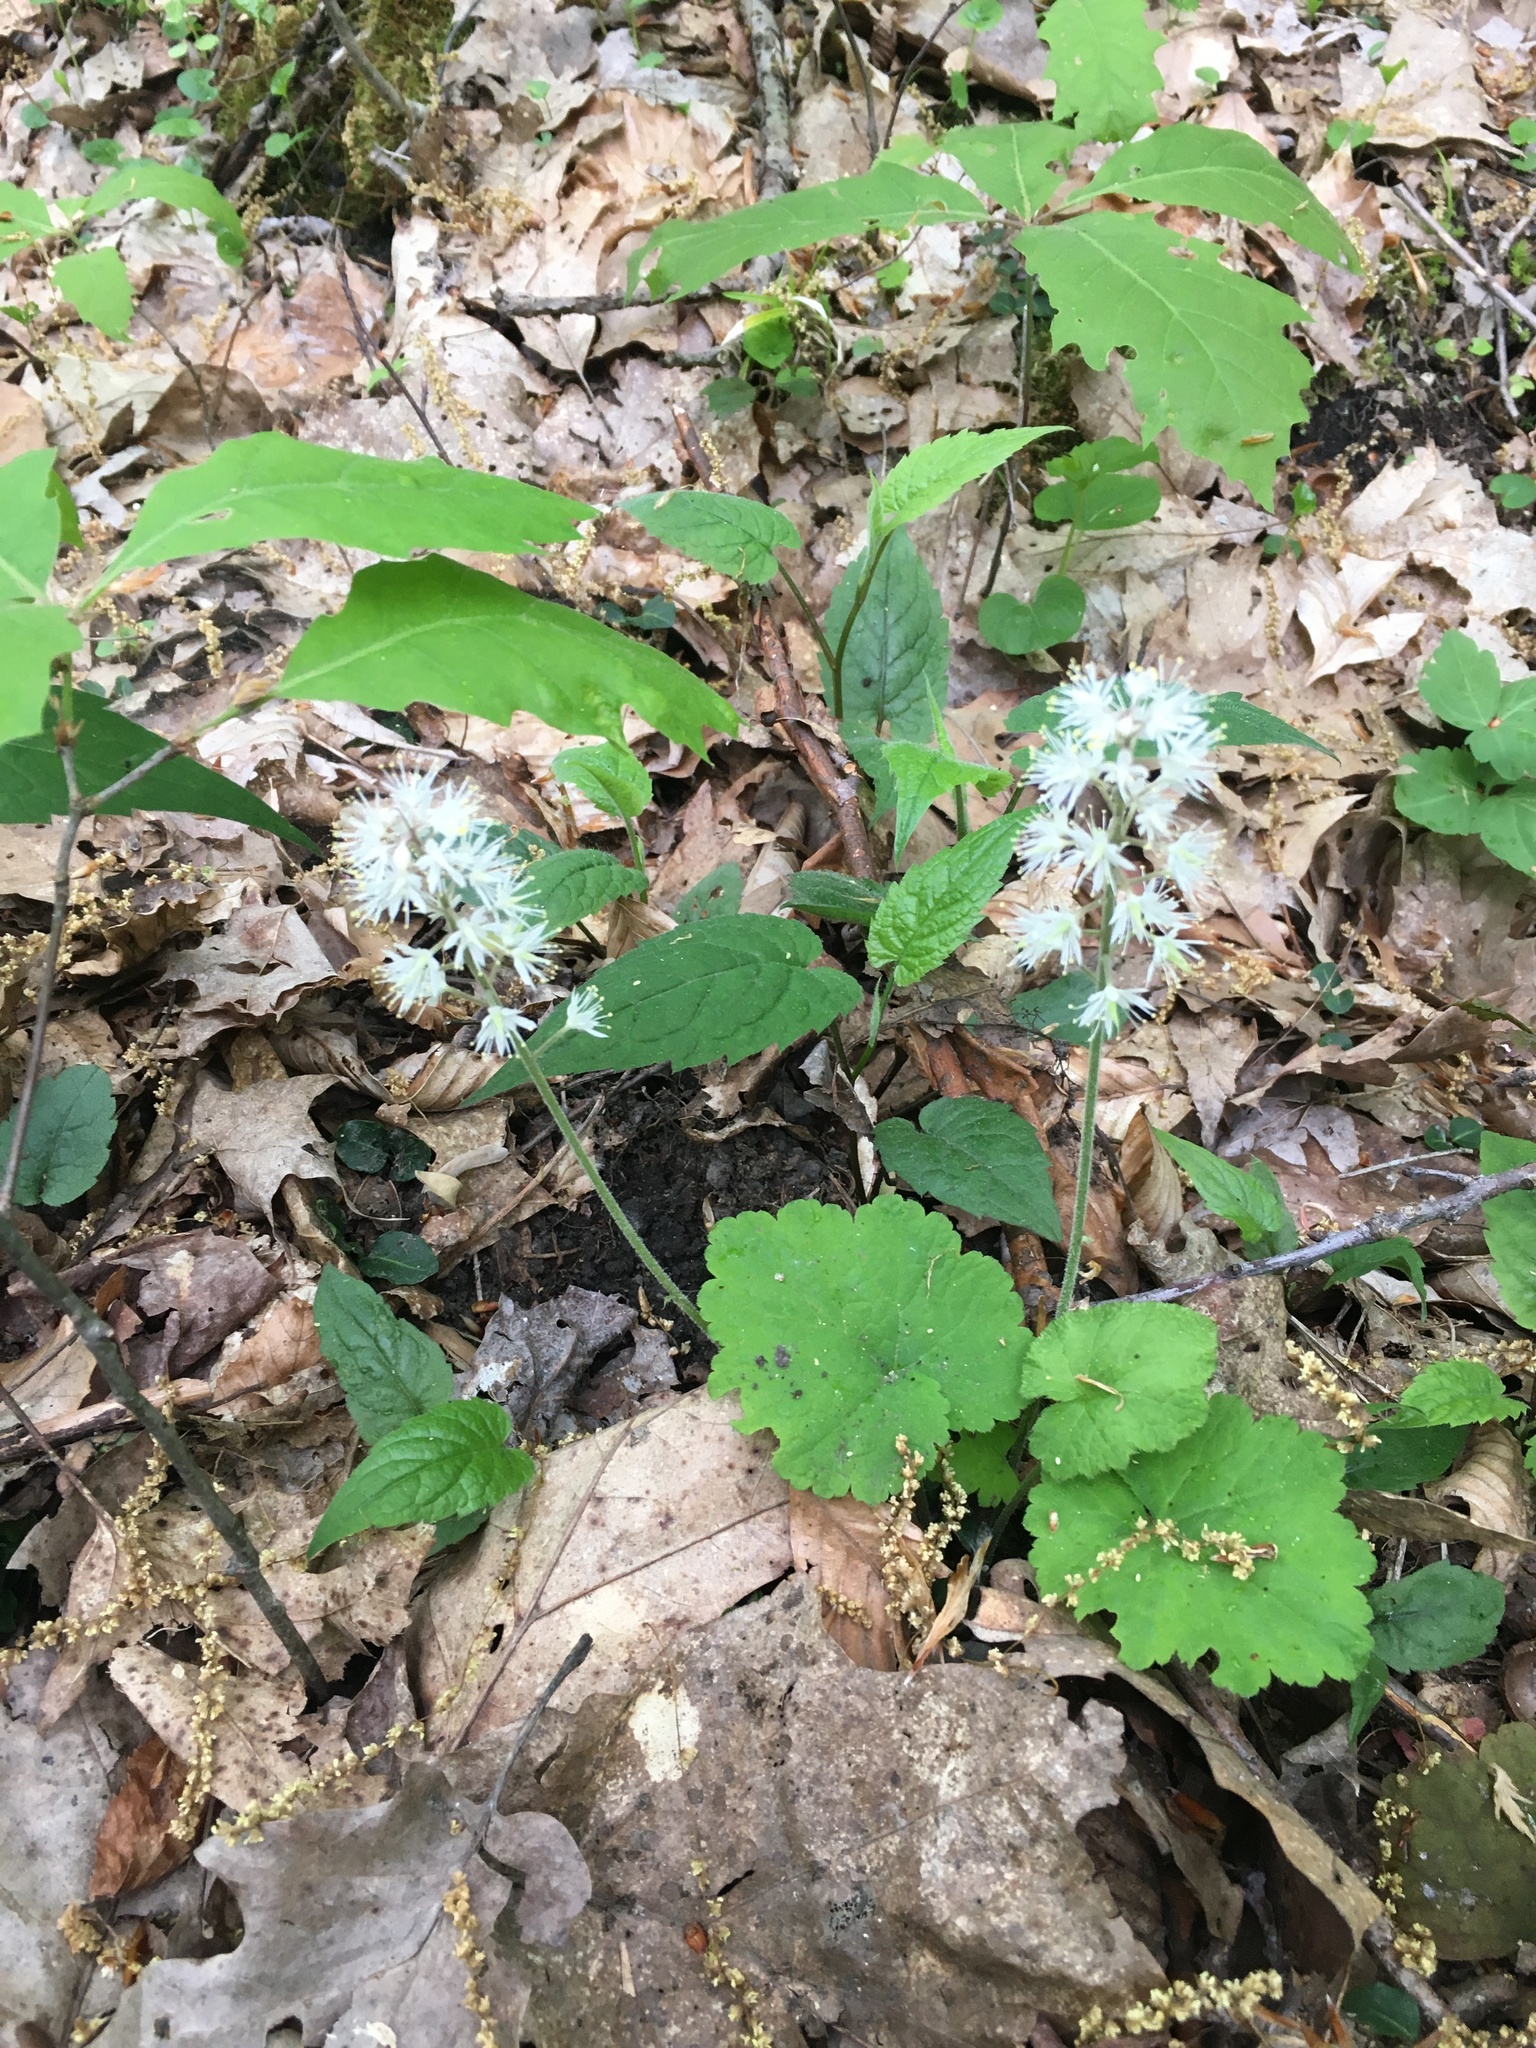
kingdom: Plantae
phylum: Tracheophyta
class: Magnoliopsida
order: Saxifragales
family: Saxifragaceae
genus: Tiarella
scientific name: Tiarella stolonifera
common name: Stoloniferous foamflower
